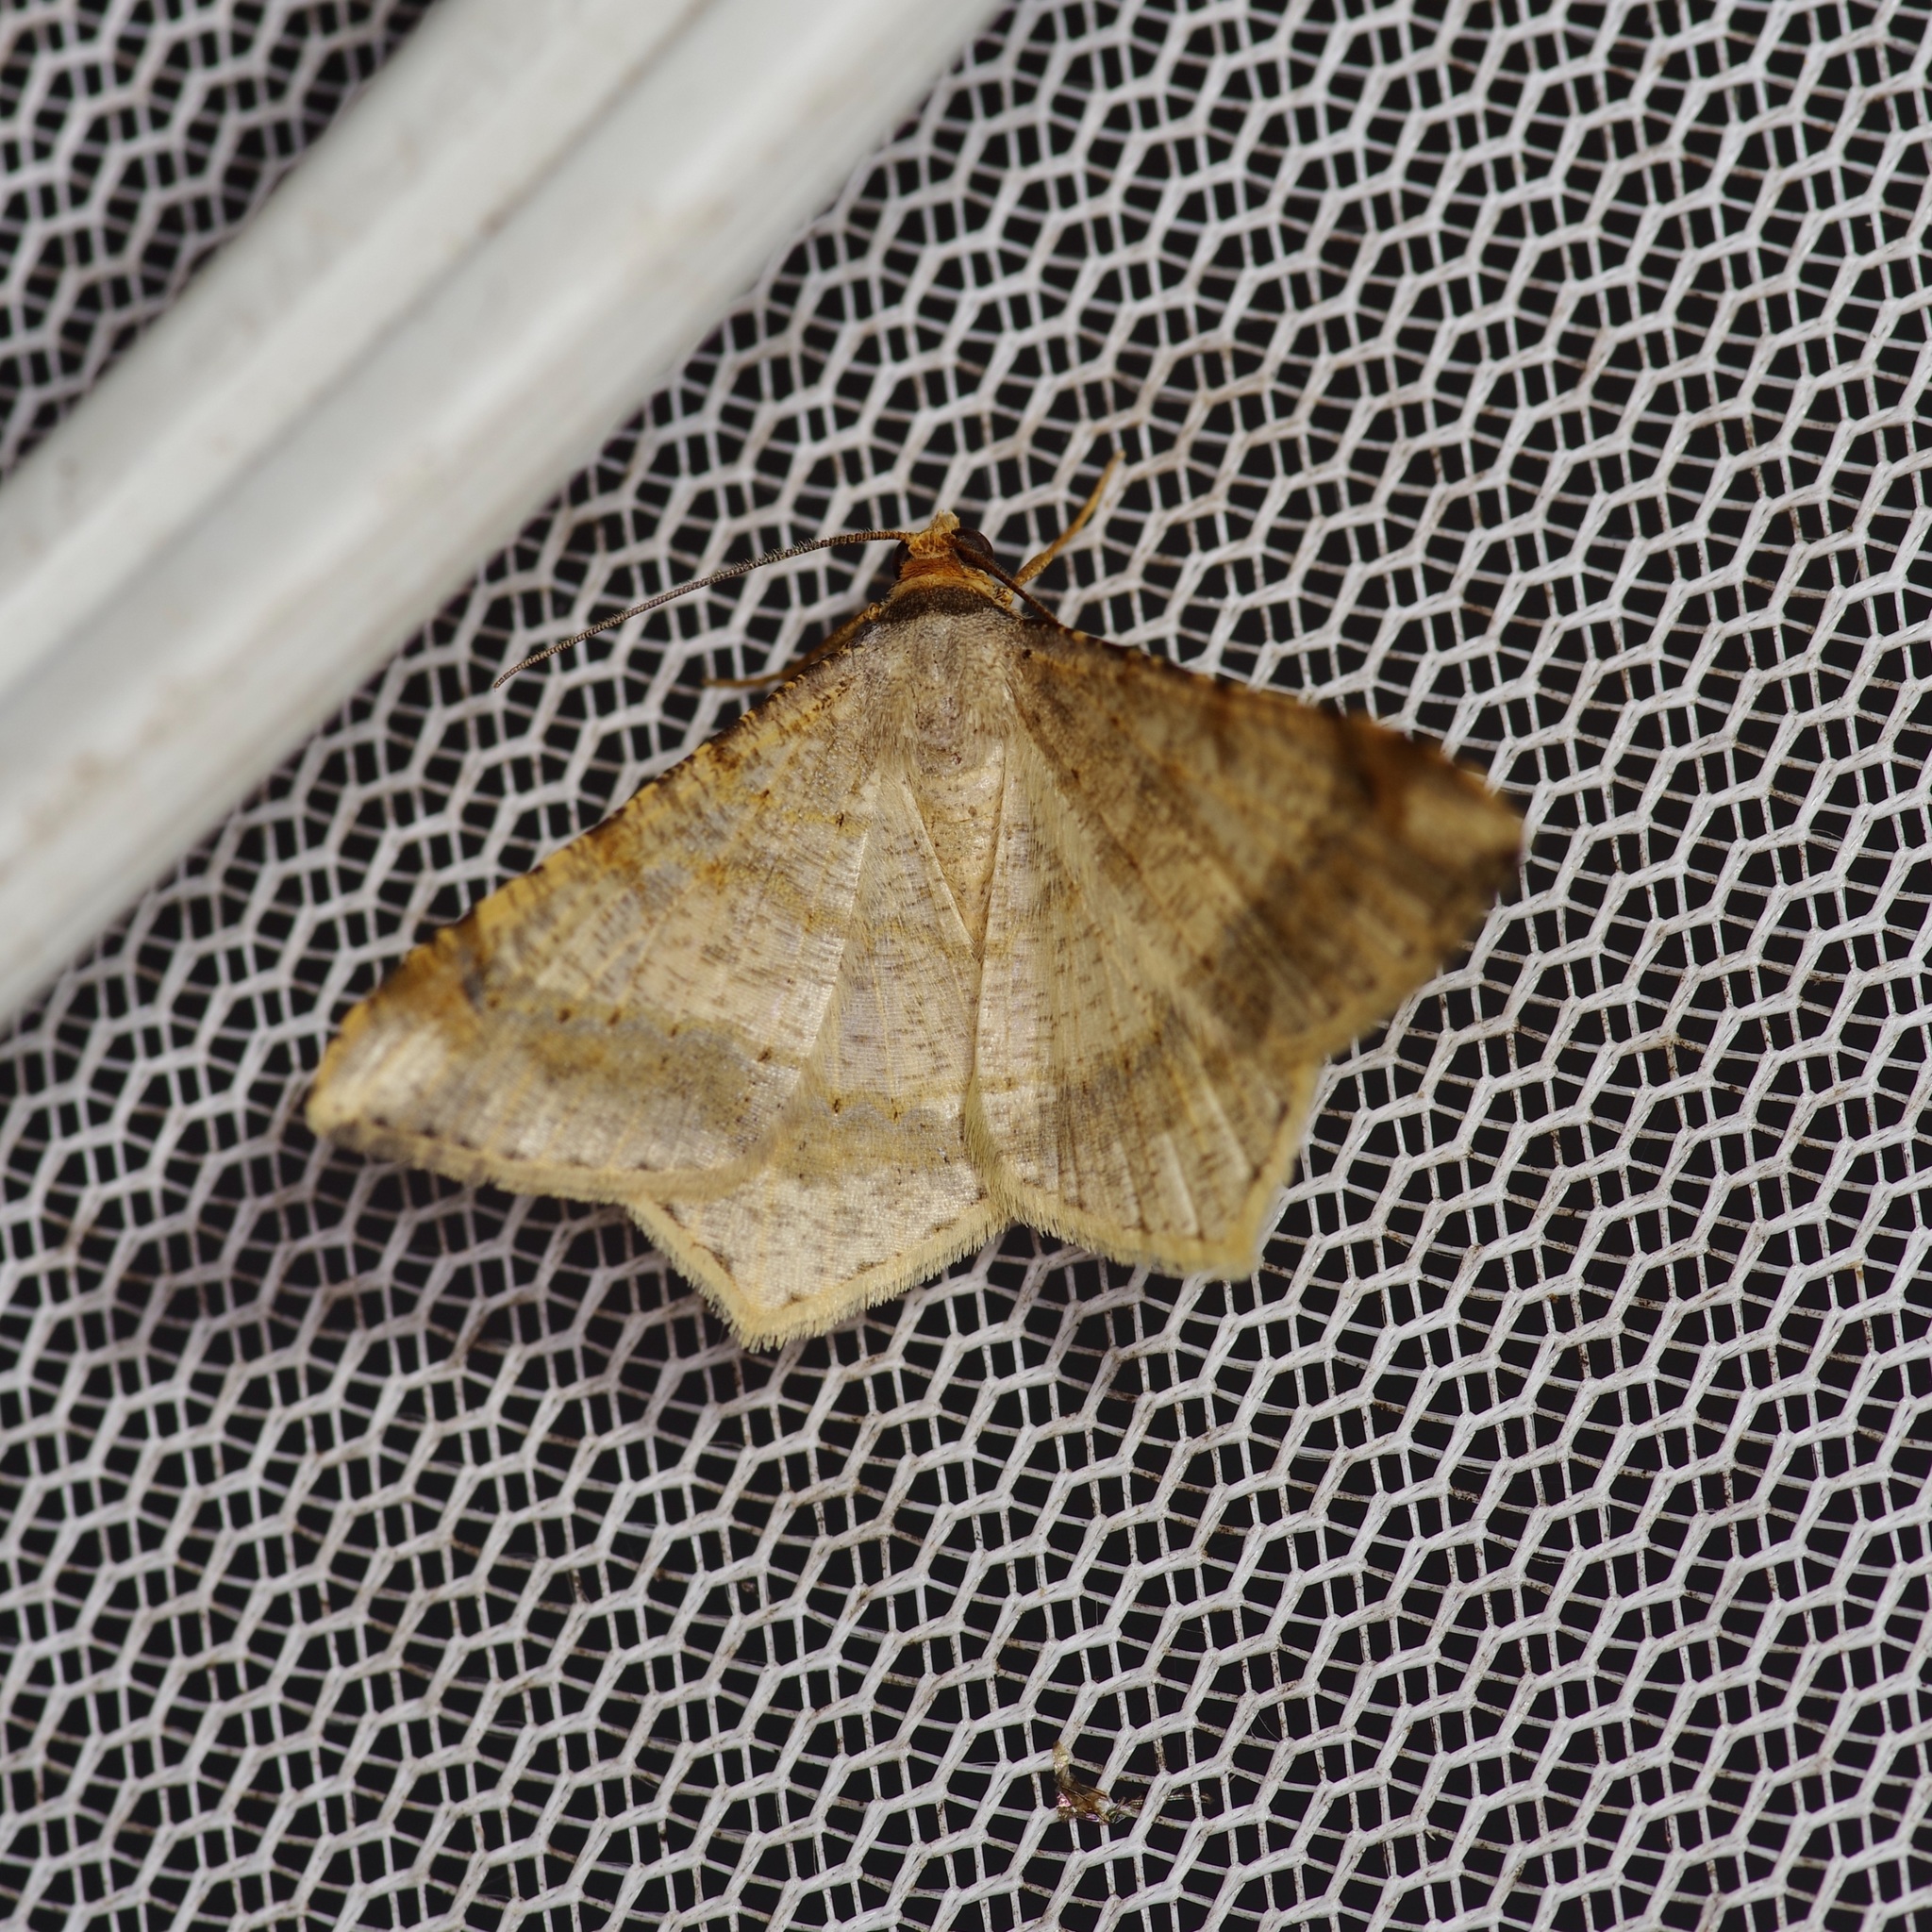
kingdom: Animalia
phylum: Arthropoda
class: Insecta
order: Lepidoptera
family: Geometridae
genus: Macaria
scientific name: Macaria abydata
